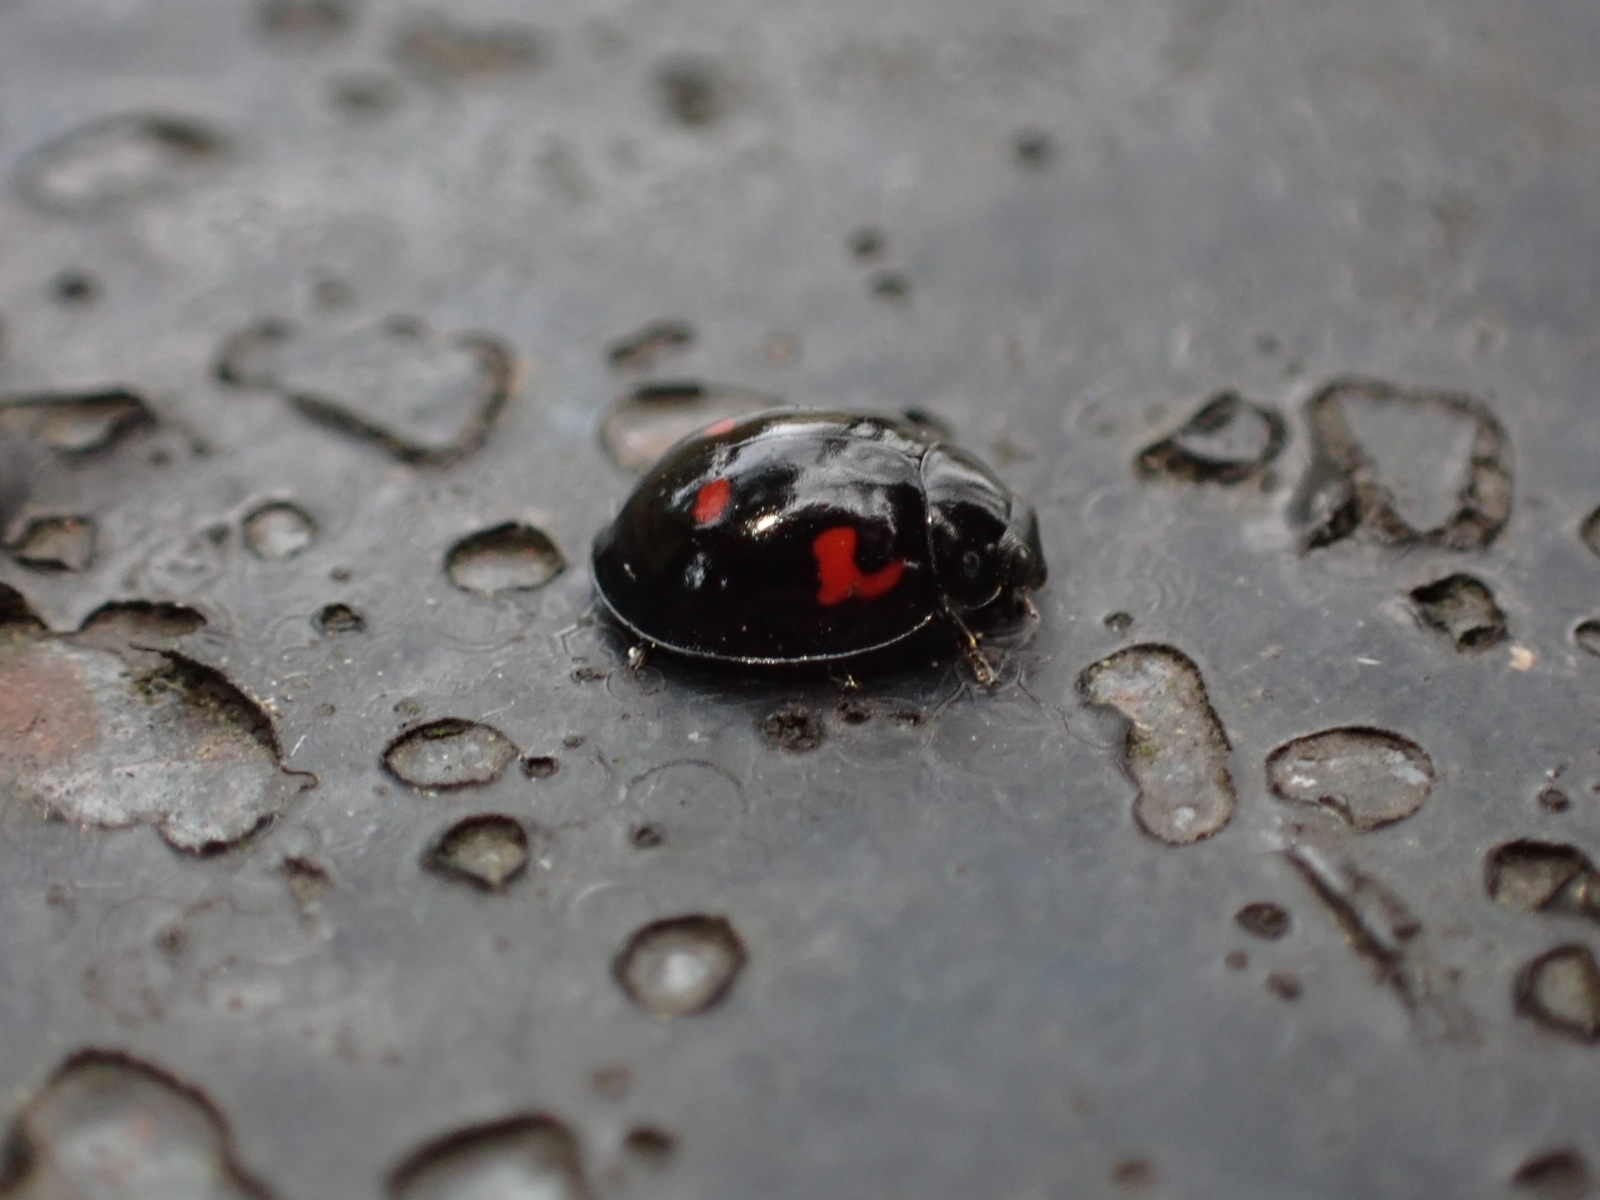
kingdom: Animalia
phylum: Arthropoda
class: Insecta
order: Coleoptera
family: Coccinellidae
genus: Brumus
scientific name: Brumus quadripustulatus
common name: Ladybird beetle
